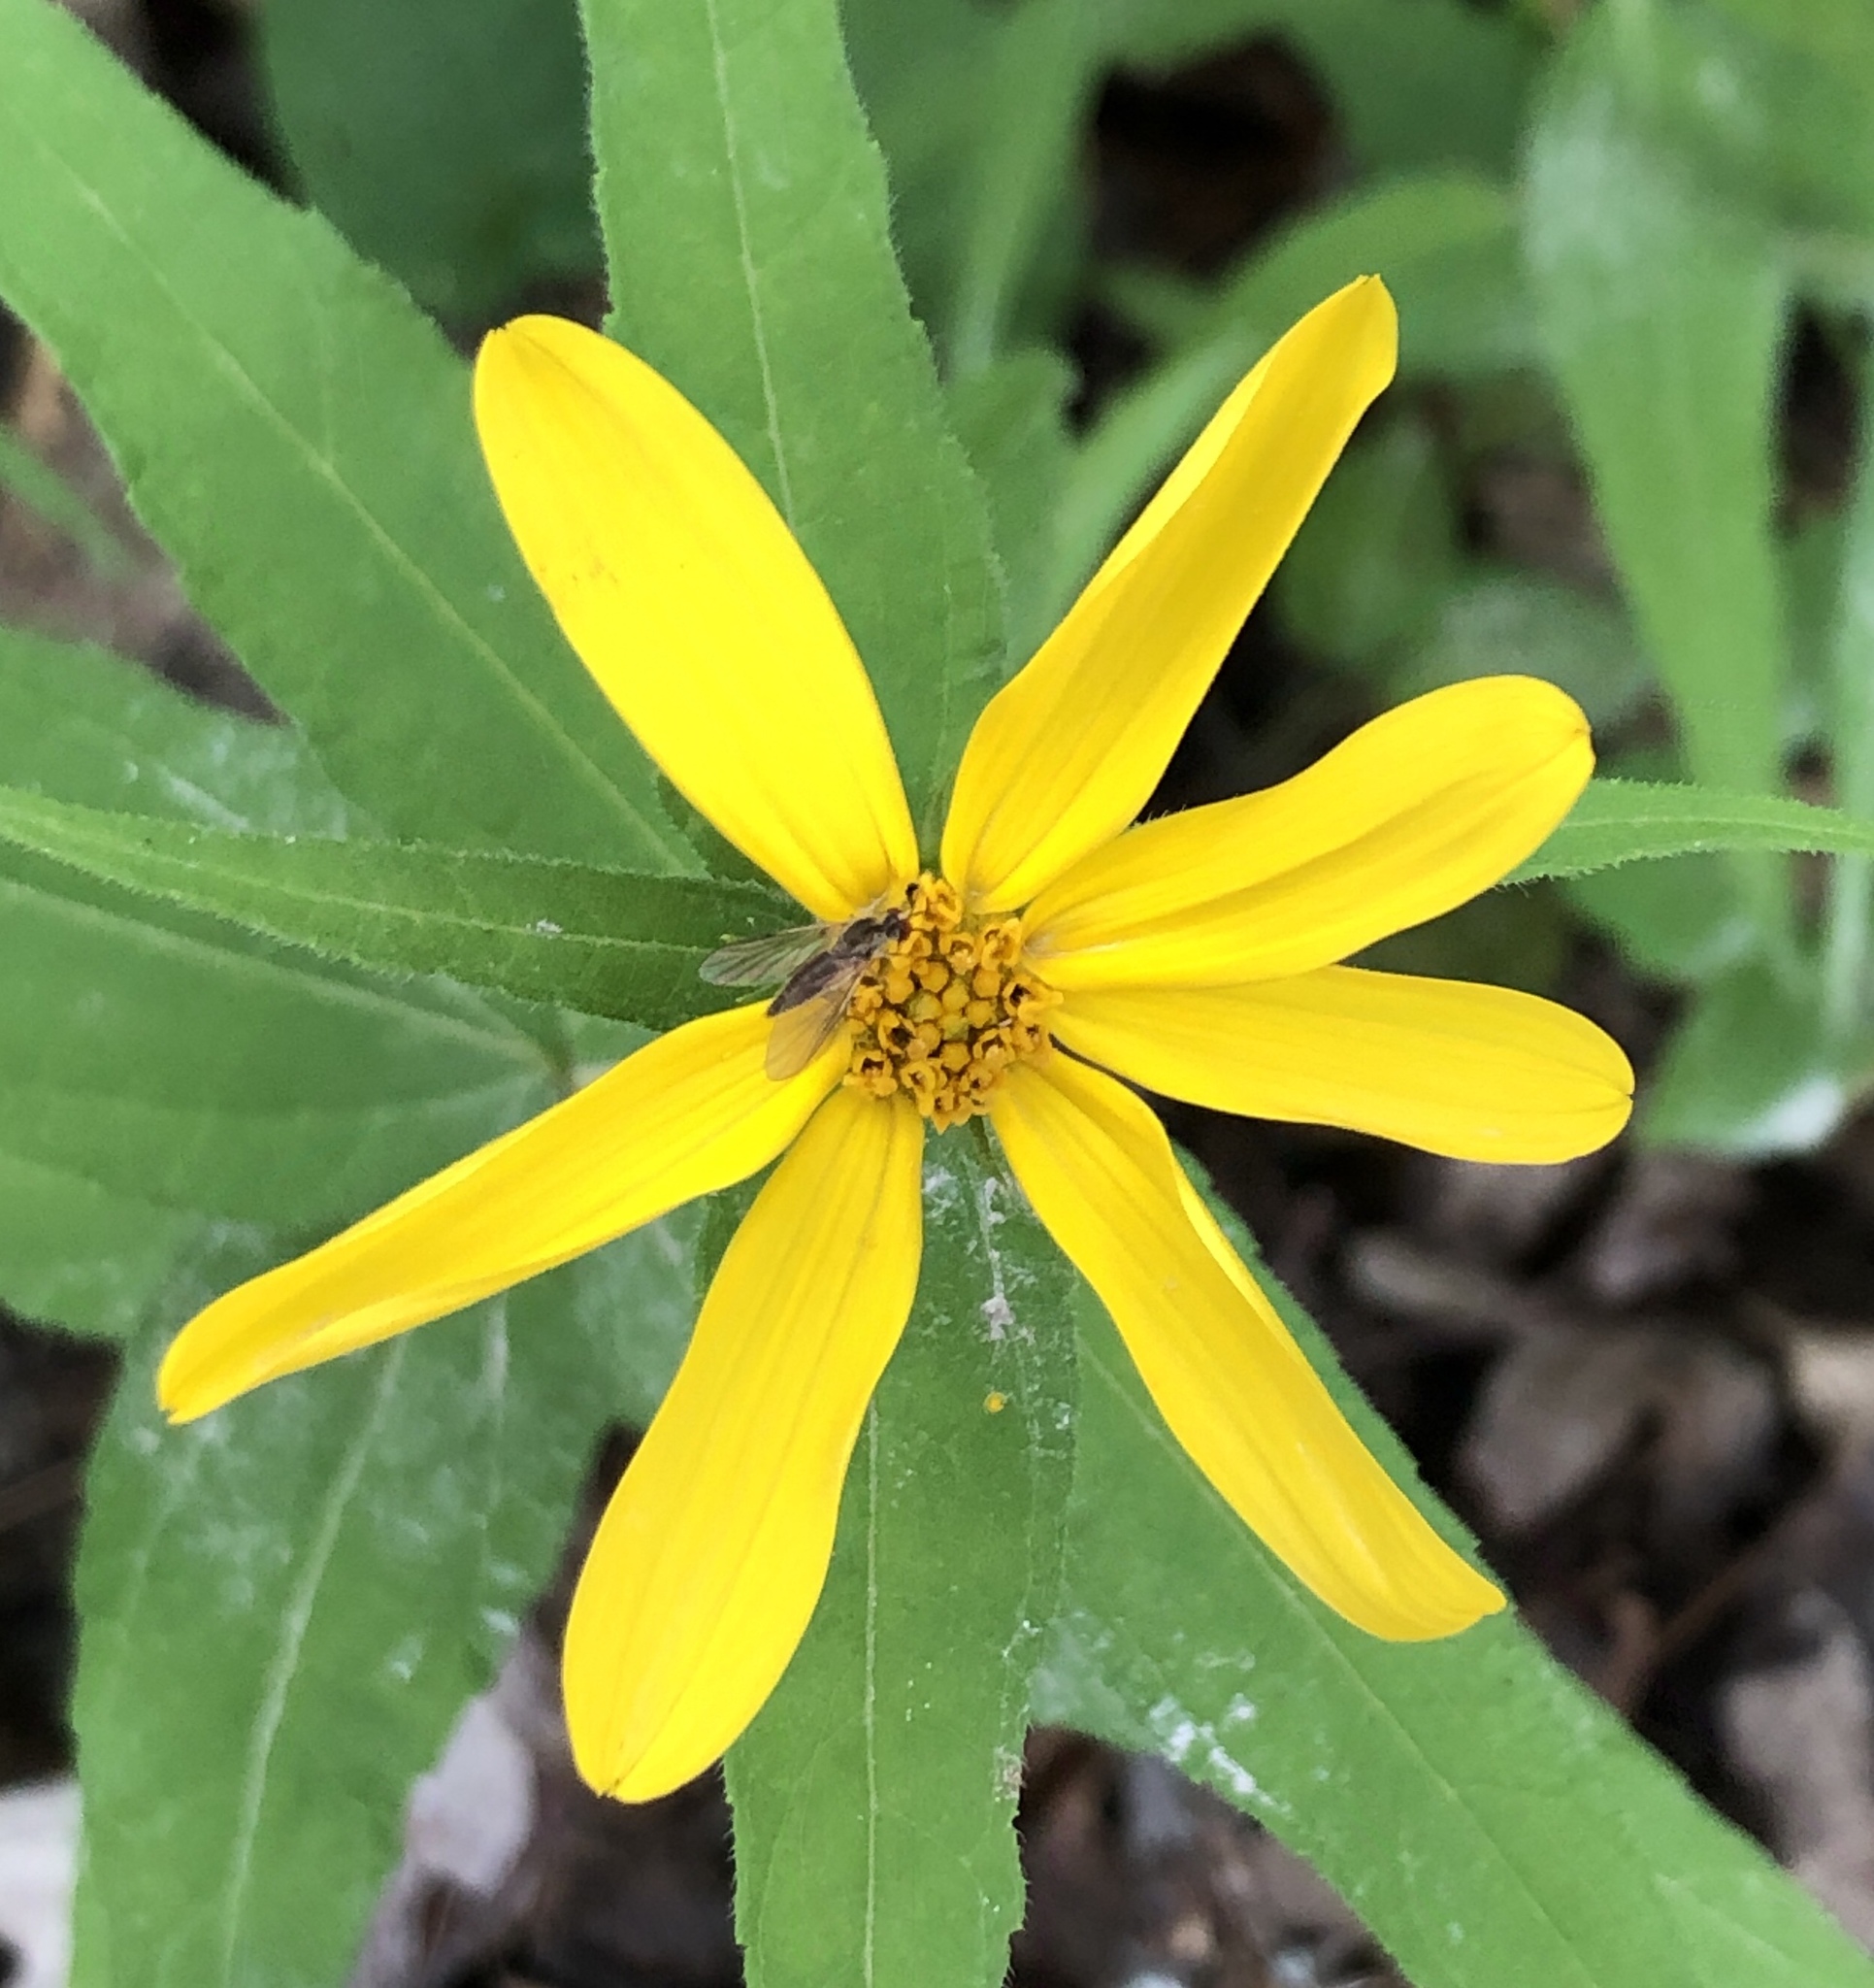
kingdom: Plantae
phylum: Tracheophyta
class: Magnoliopsida
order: Asterales
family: Asteraceae
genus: Helianthus
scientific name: Helianthus divaricatus
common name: Divergent sunflower
